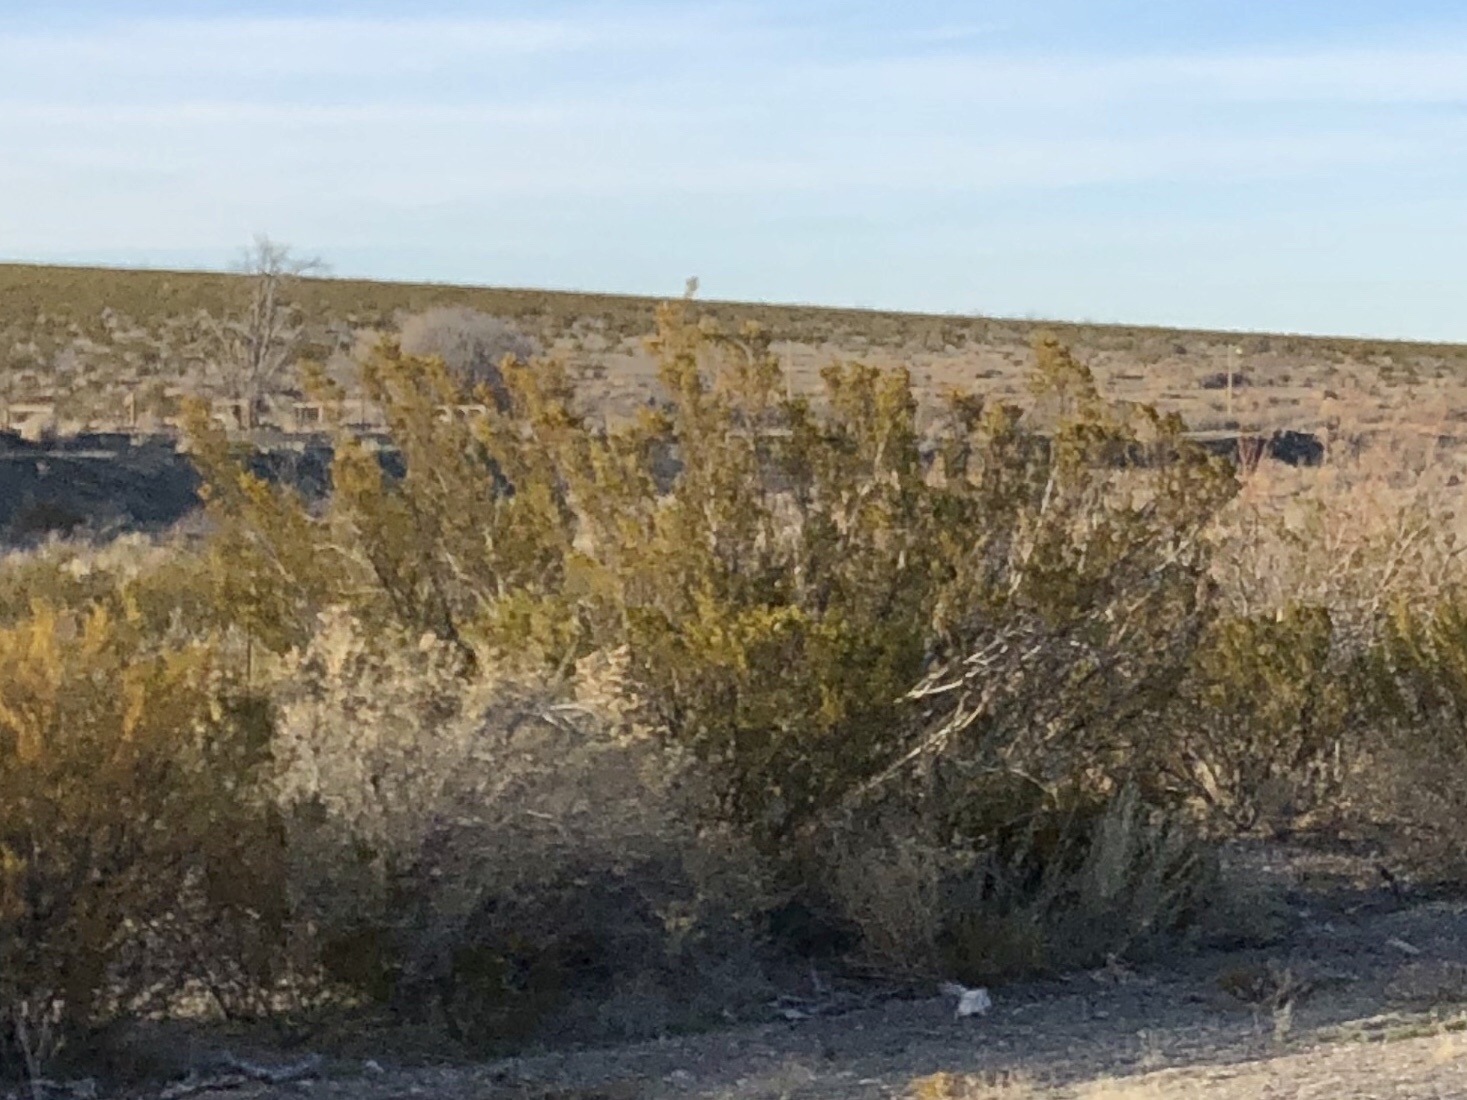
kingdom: Plantae
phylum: Tracheophyta
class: Magnoliopsida
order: Zygophyllales
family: Zygophyllaceae
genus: Larrea
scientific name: Larrea tridentata
